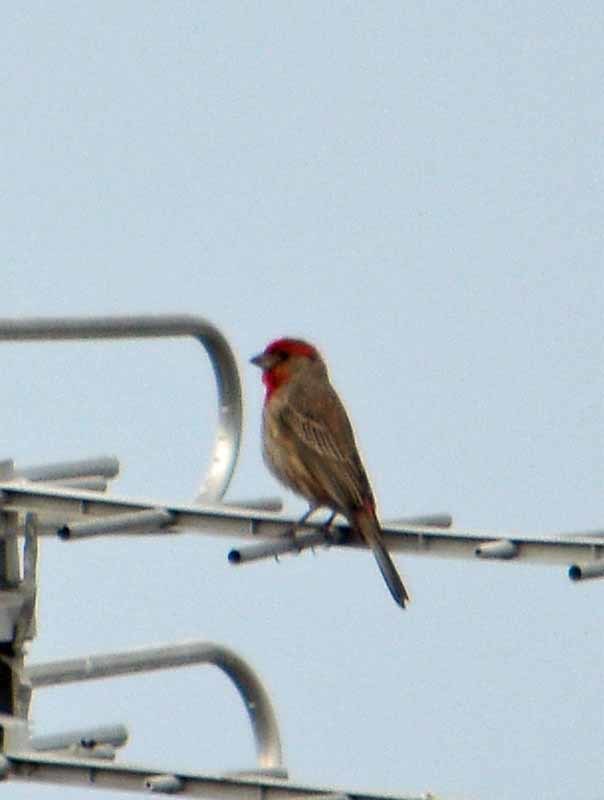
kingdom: Animalia
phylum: Chordata
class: Aves
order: Passeriformes
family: Fringillidae
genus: Haemorhous
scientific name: Haemorhous mexicanus
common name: House finch
